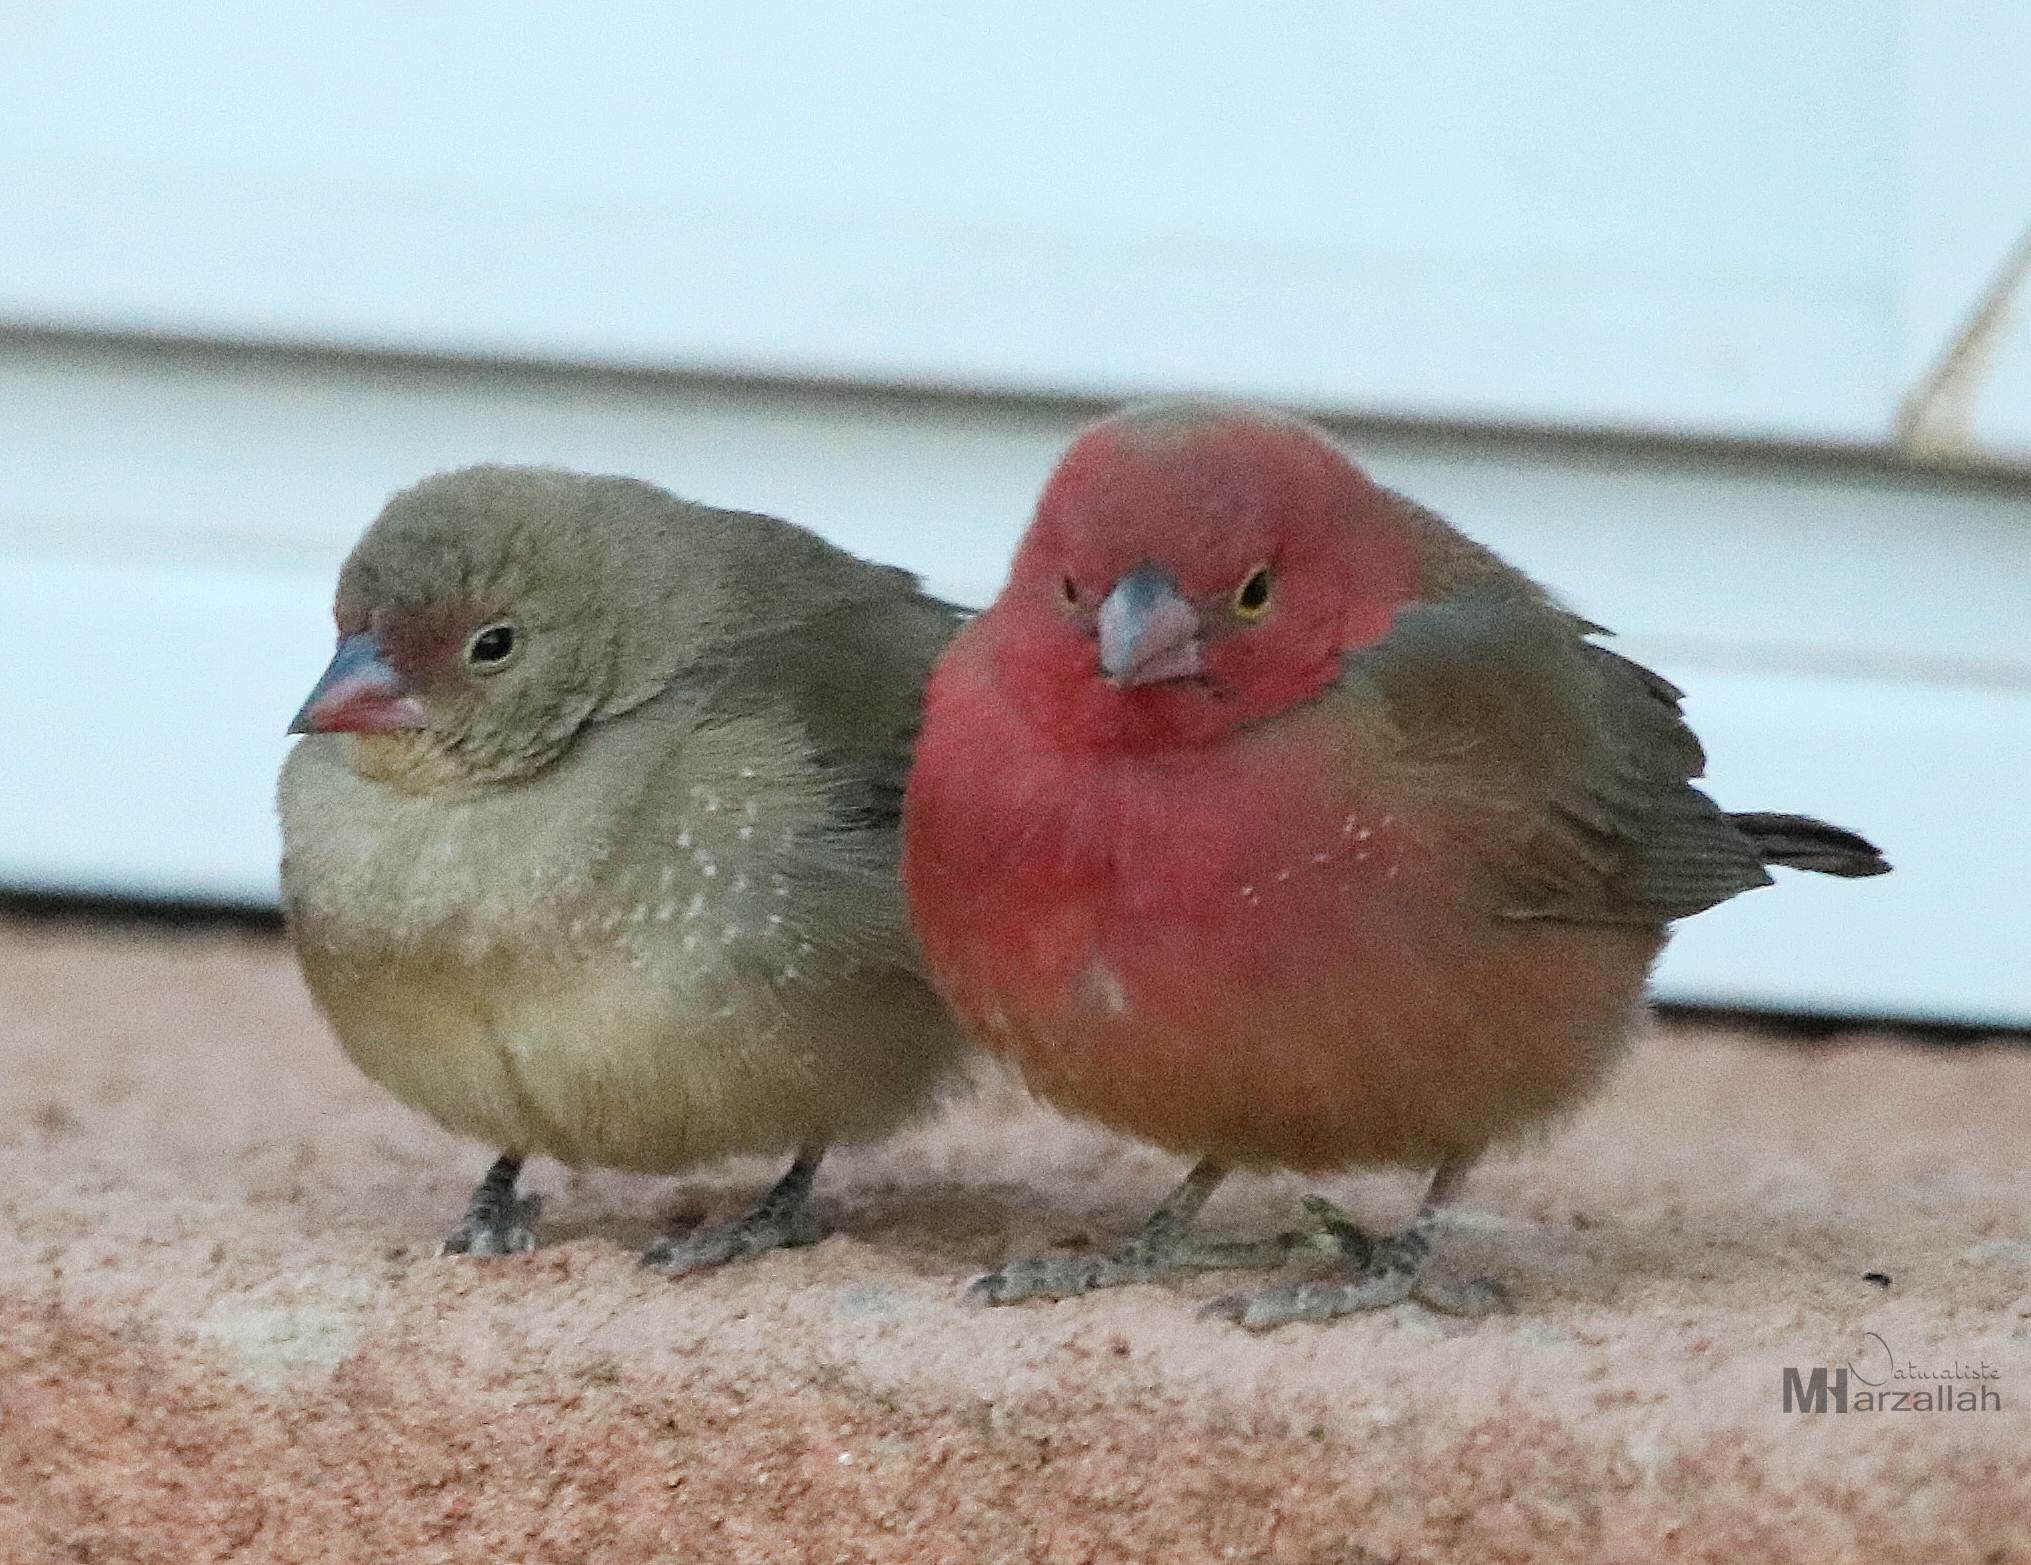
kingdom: Animalia
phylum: Chordata
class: Aves
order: Passeriformes
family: Estrildidae
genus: Lagonosticta
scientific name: Lagonosticta senegala
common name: Red-billed firefinch
